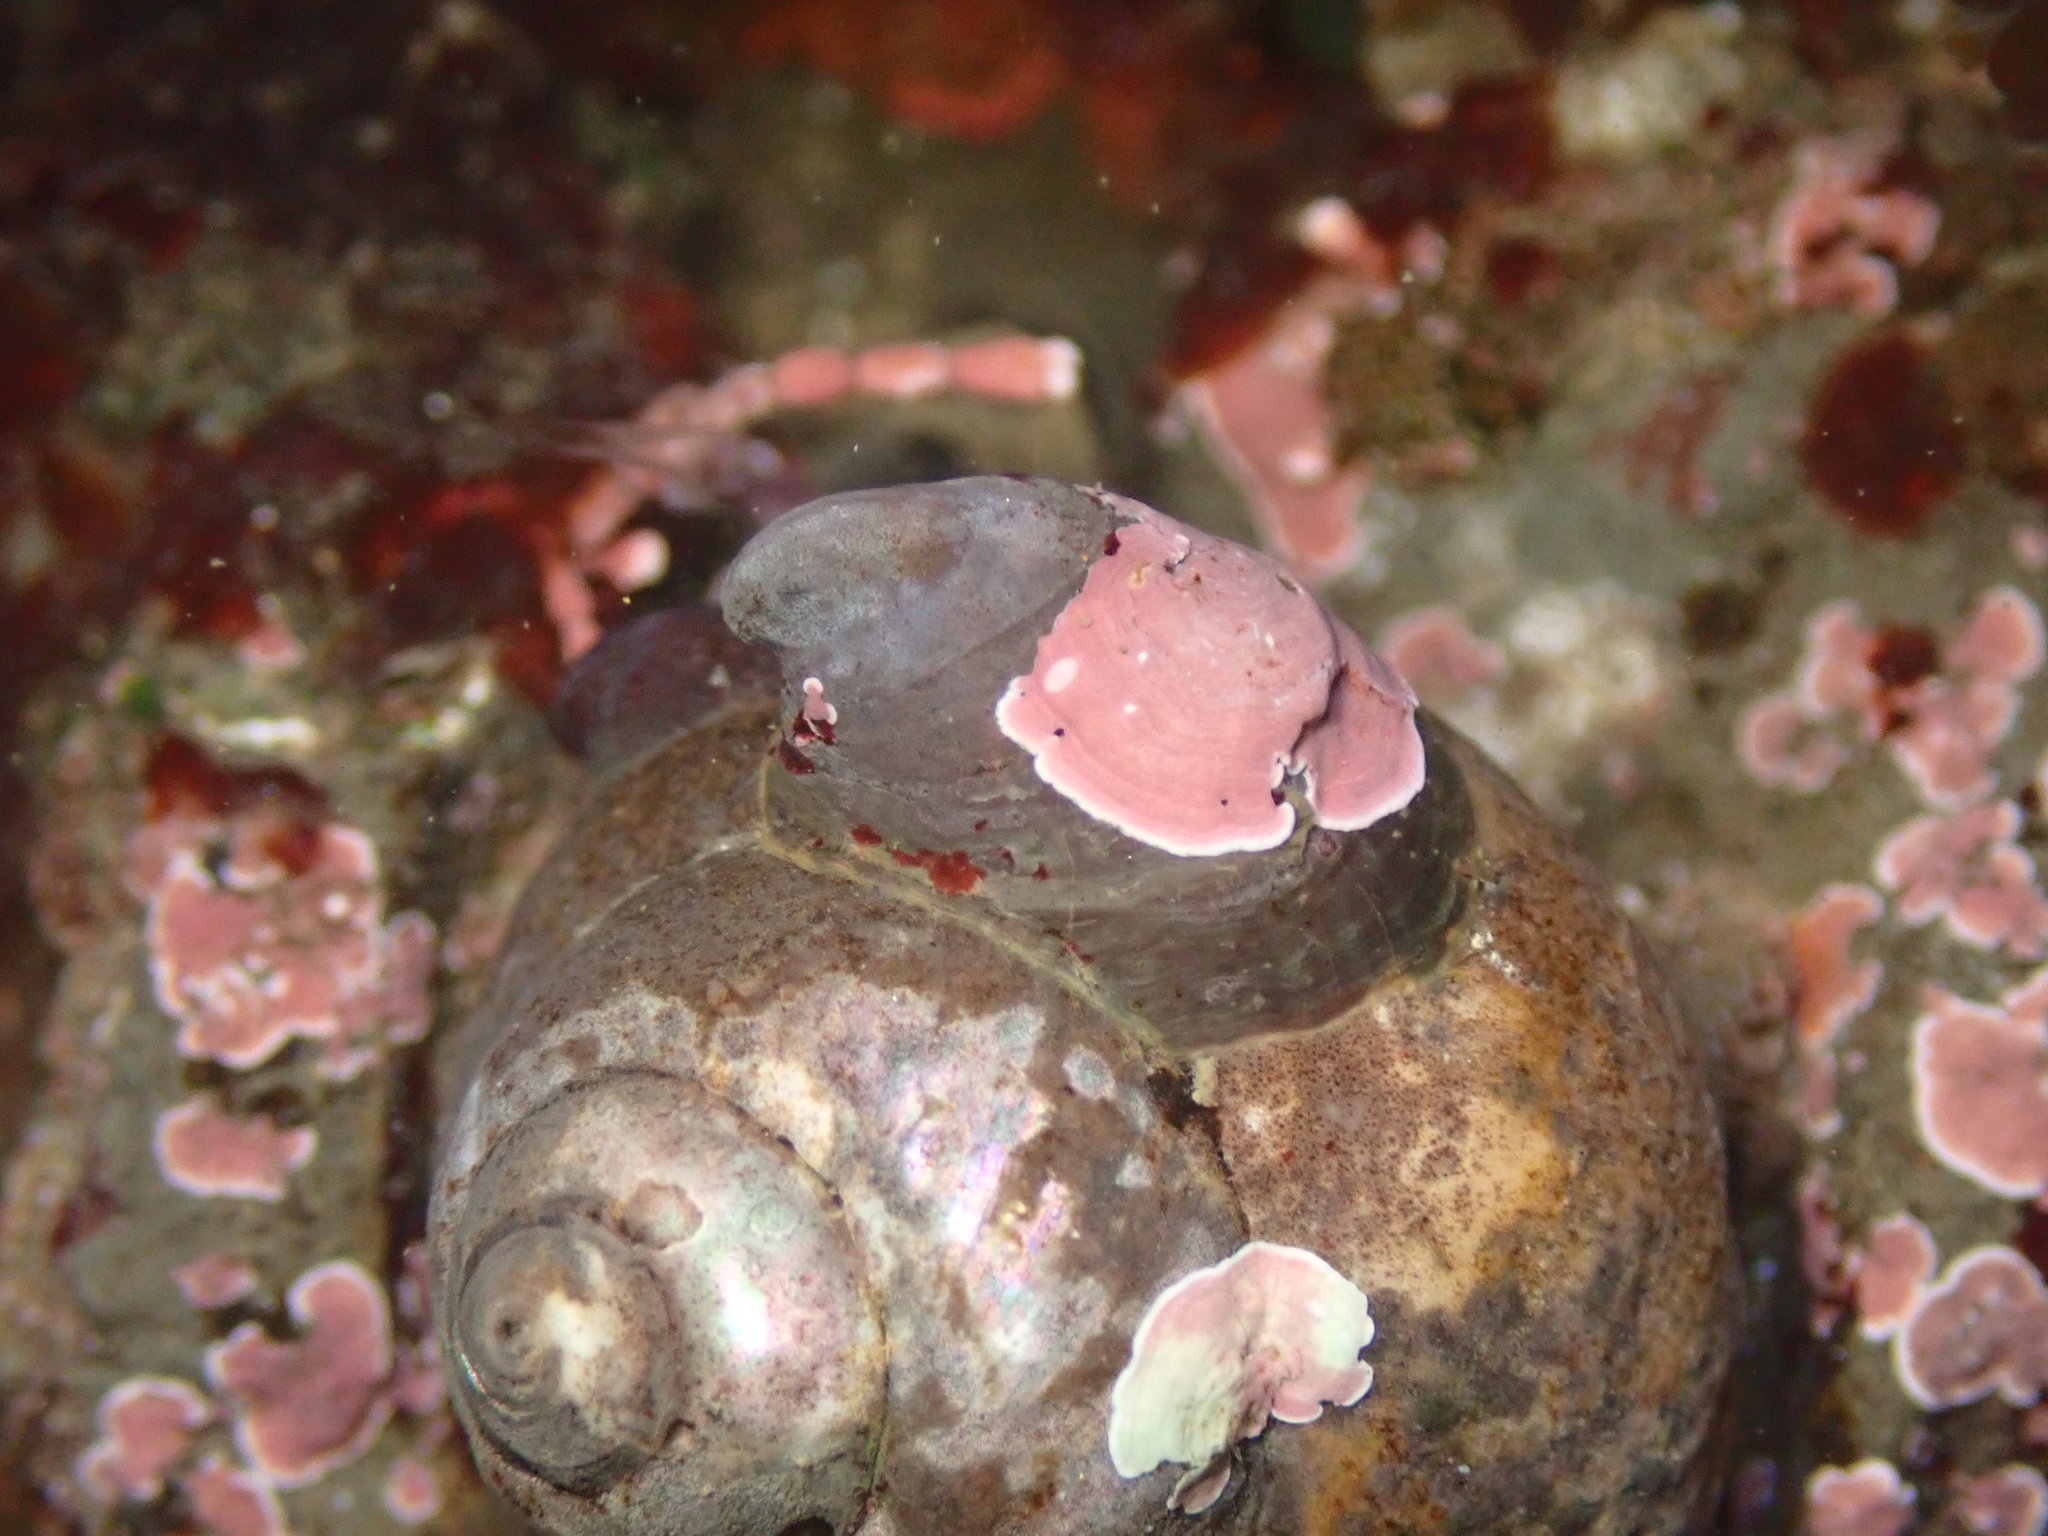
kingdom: Animalia
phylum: Mollusca
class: Gastropoda
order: Littorinimorpha
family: Calyptraeidae
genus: Crepidula
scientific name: Crepidula adunca
